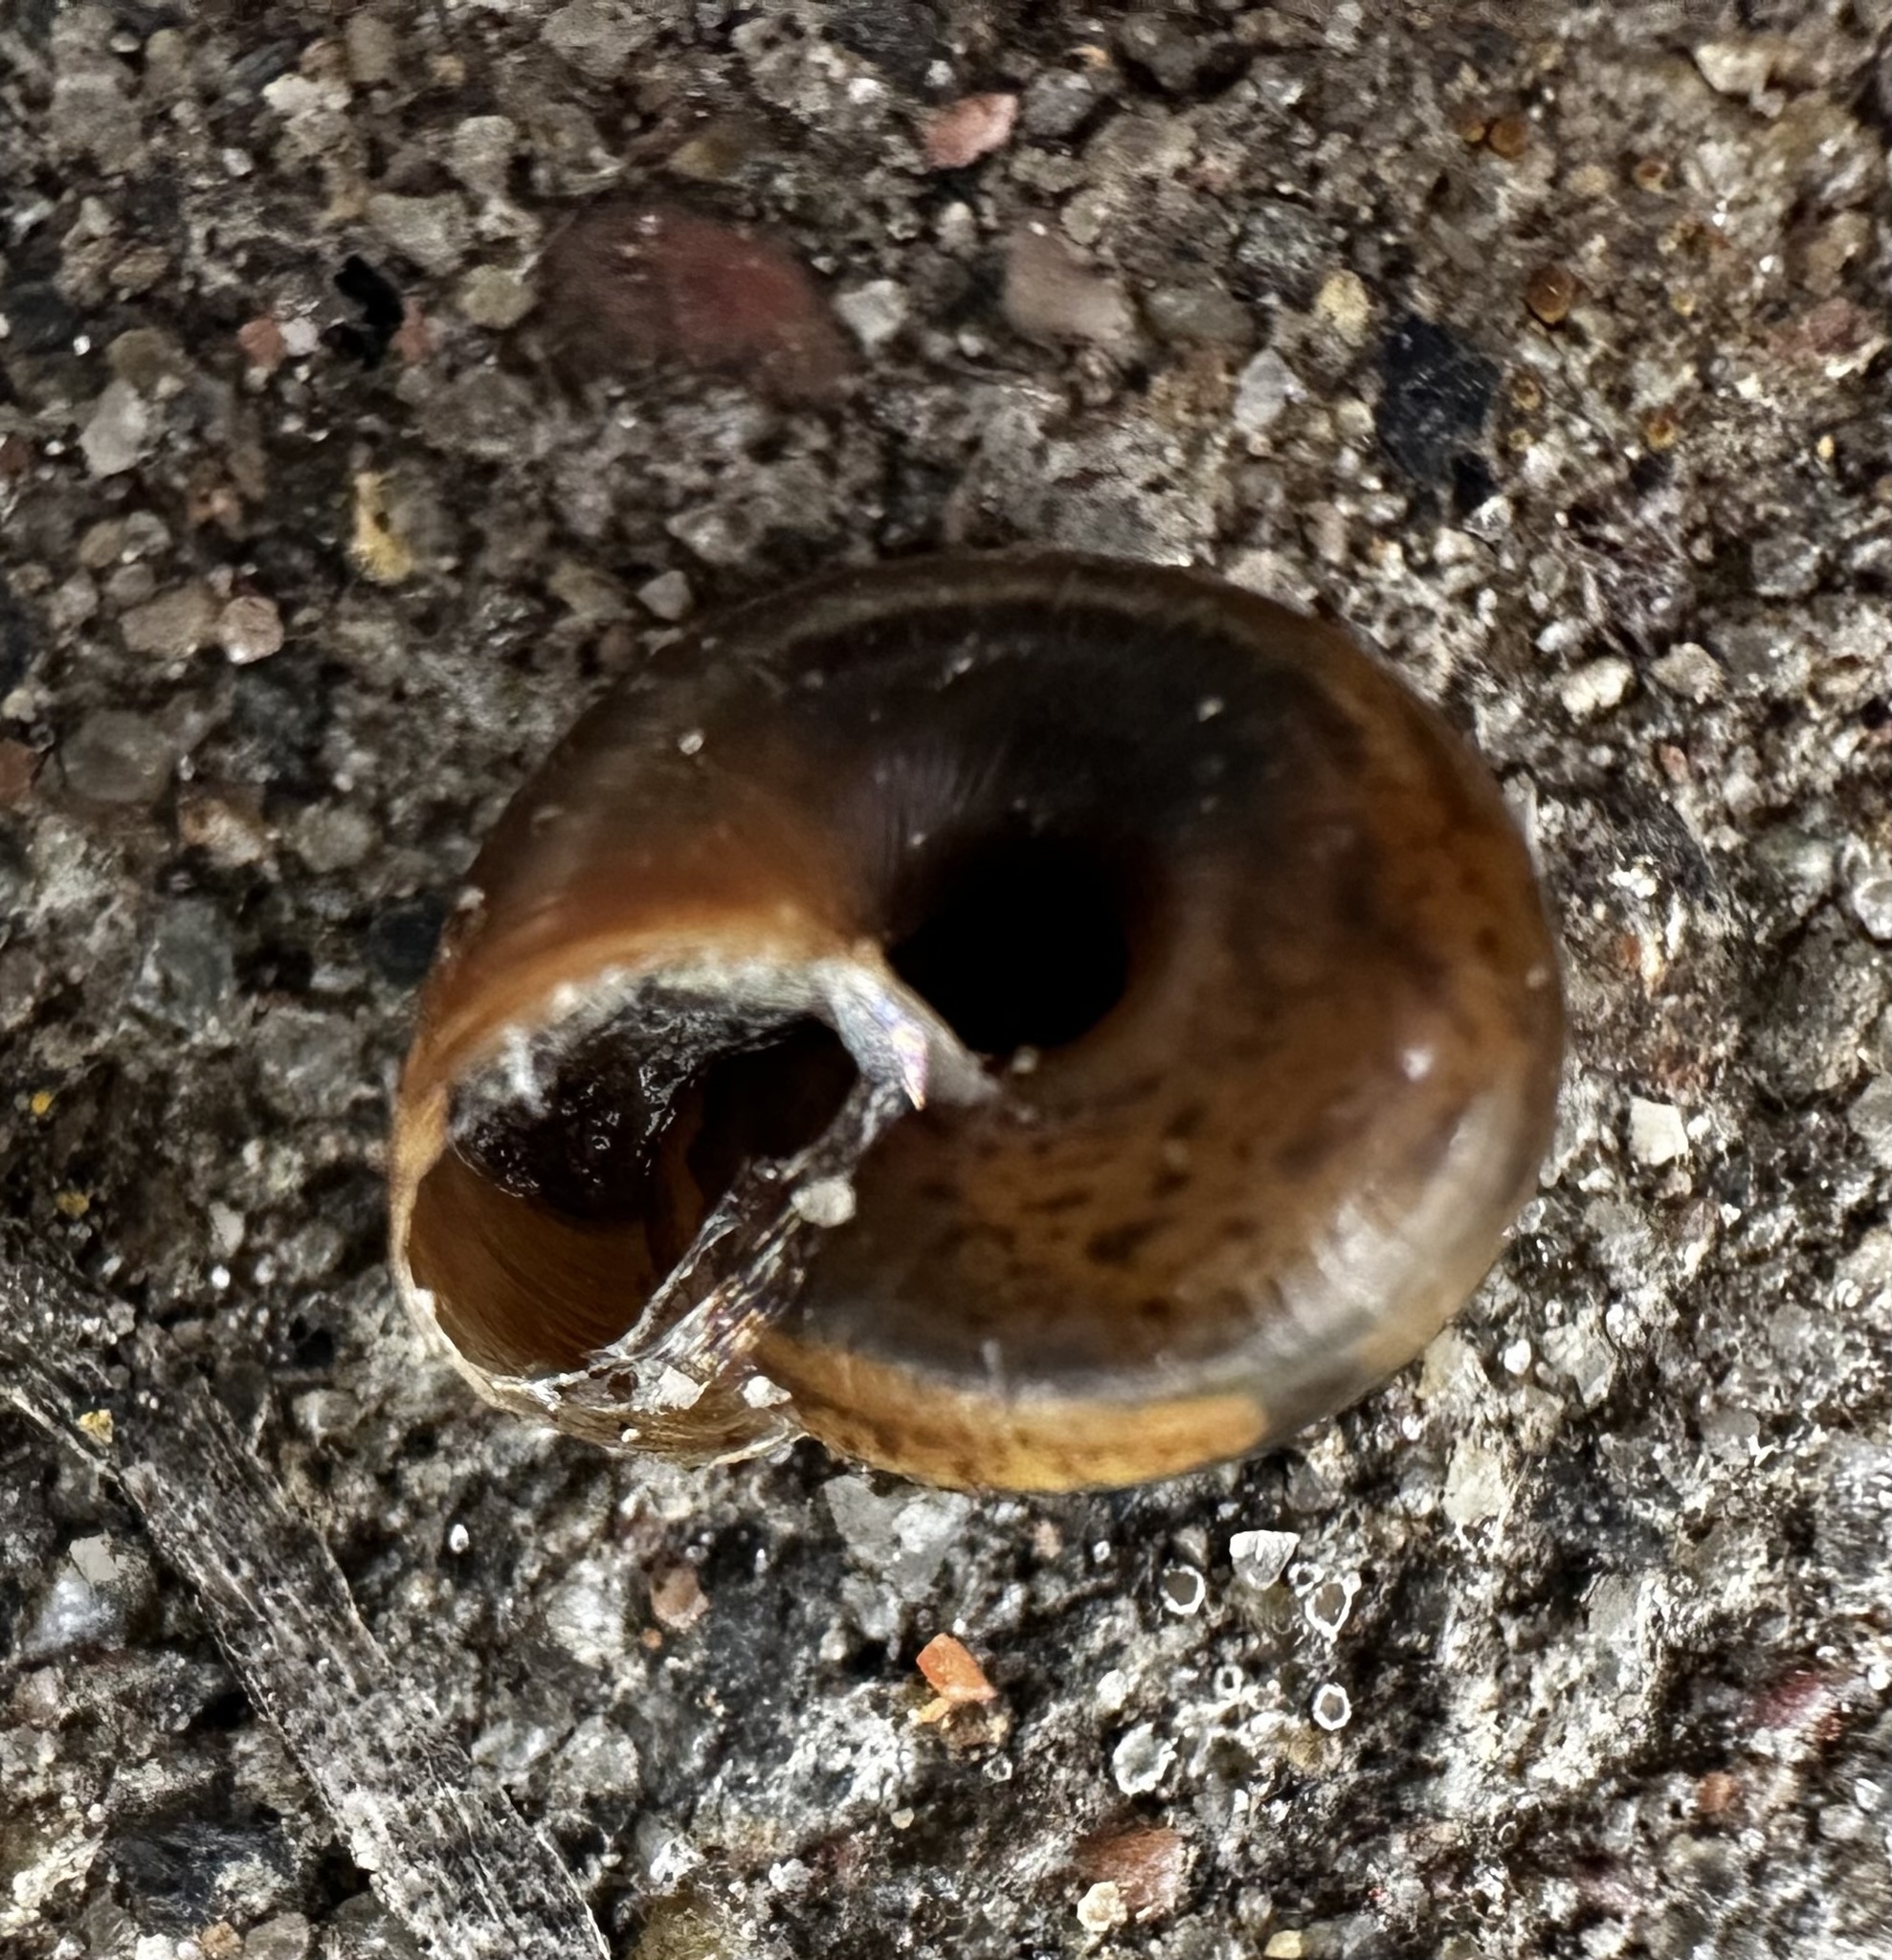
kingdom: Animalia
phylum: Mollusca
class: Gastropoda
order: Stylommatophora
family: Hygromiidae
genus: Trochulus
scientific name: Trochulus hispidus
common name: Hairy snail
